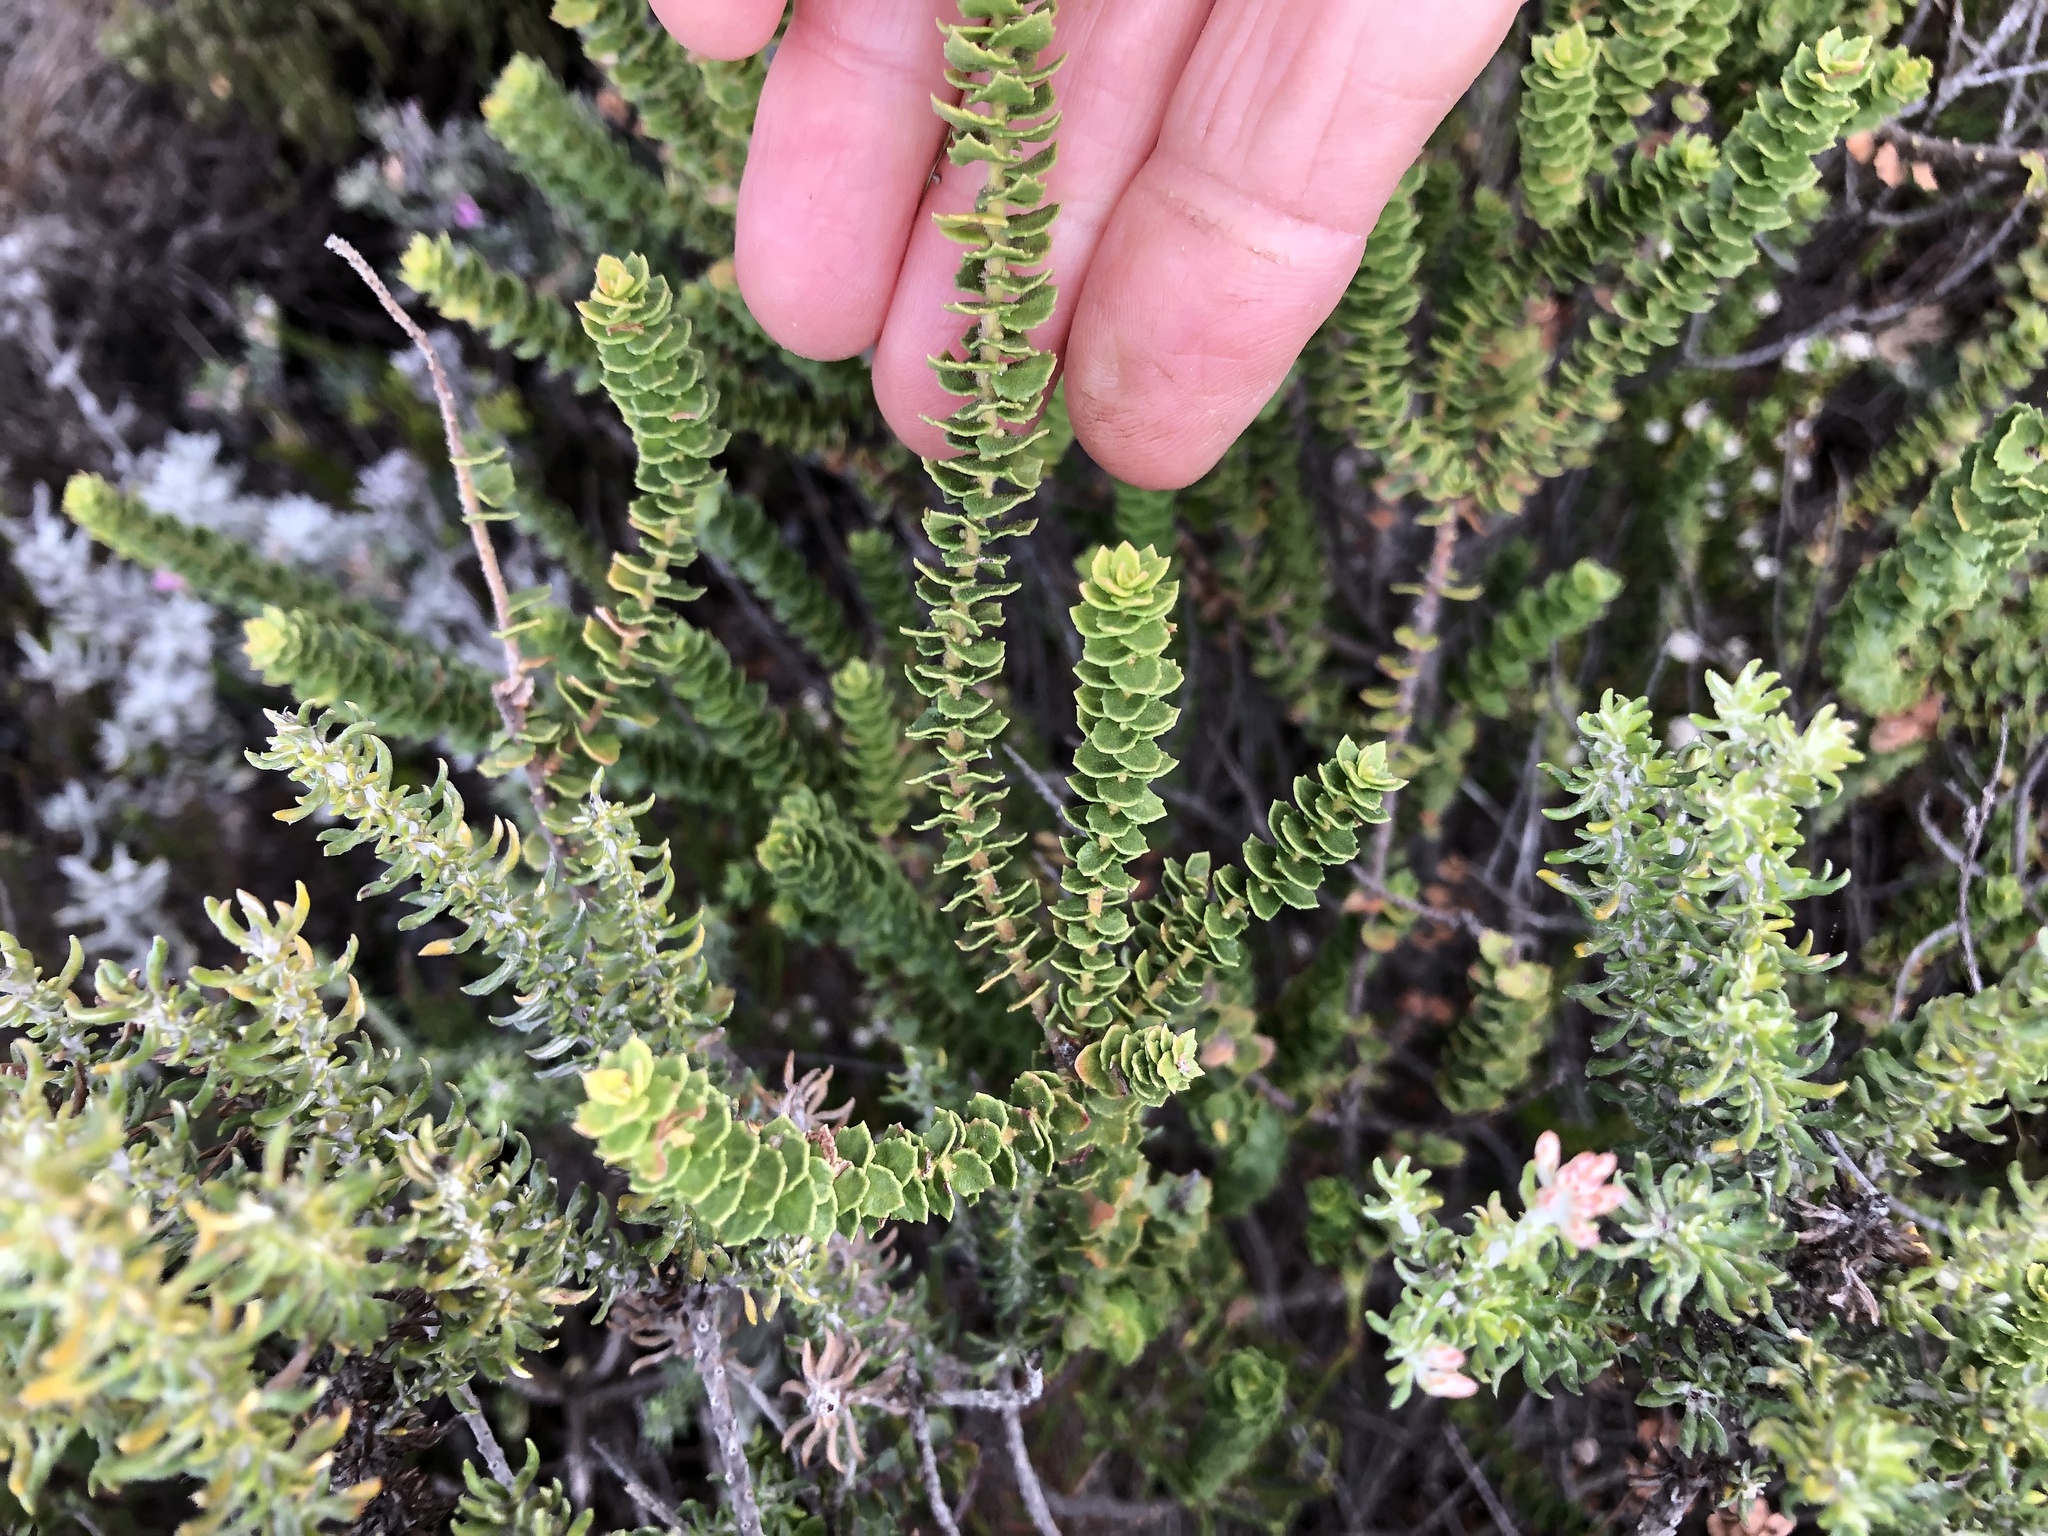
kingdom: Plantae
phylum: Tracheophyta
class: Magnoliopsida
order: Fagales
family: Myricaceae
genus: Morella
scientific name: Morella cordifolia
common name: Waxberry
